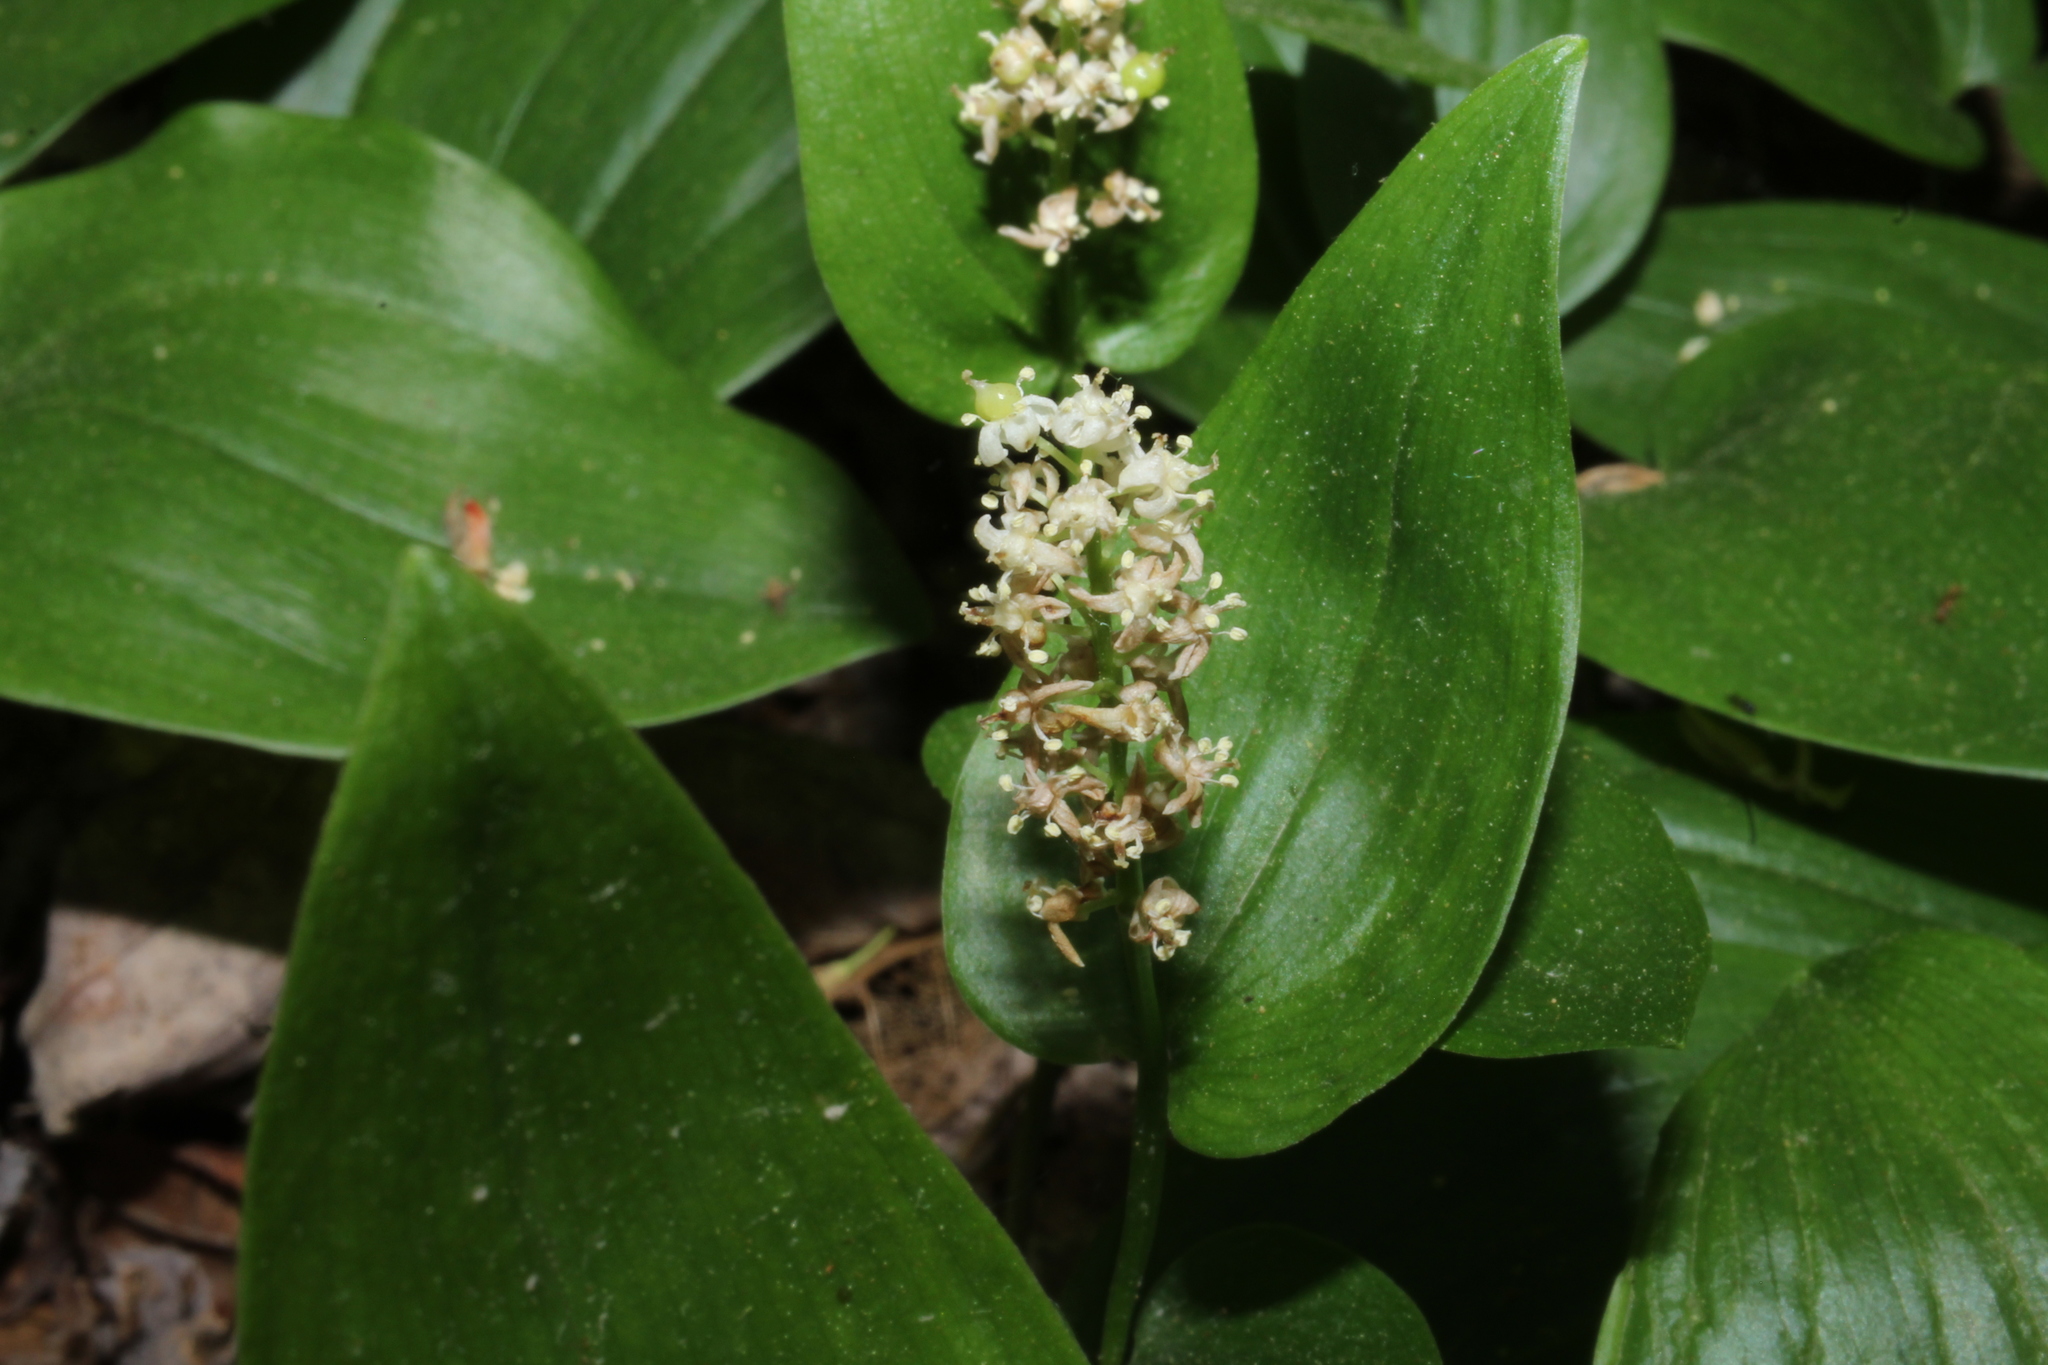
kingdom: Plantae
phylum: Tracheophyta
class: Liliopsida
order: Asparagales
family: Asparagaceae
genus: Maianthemum
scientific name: Maianthemum canadense
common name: False lily-of-the-valley
